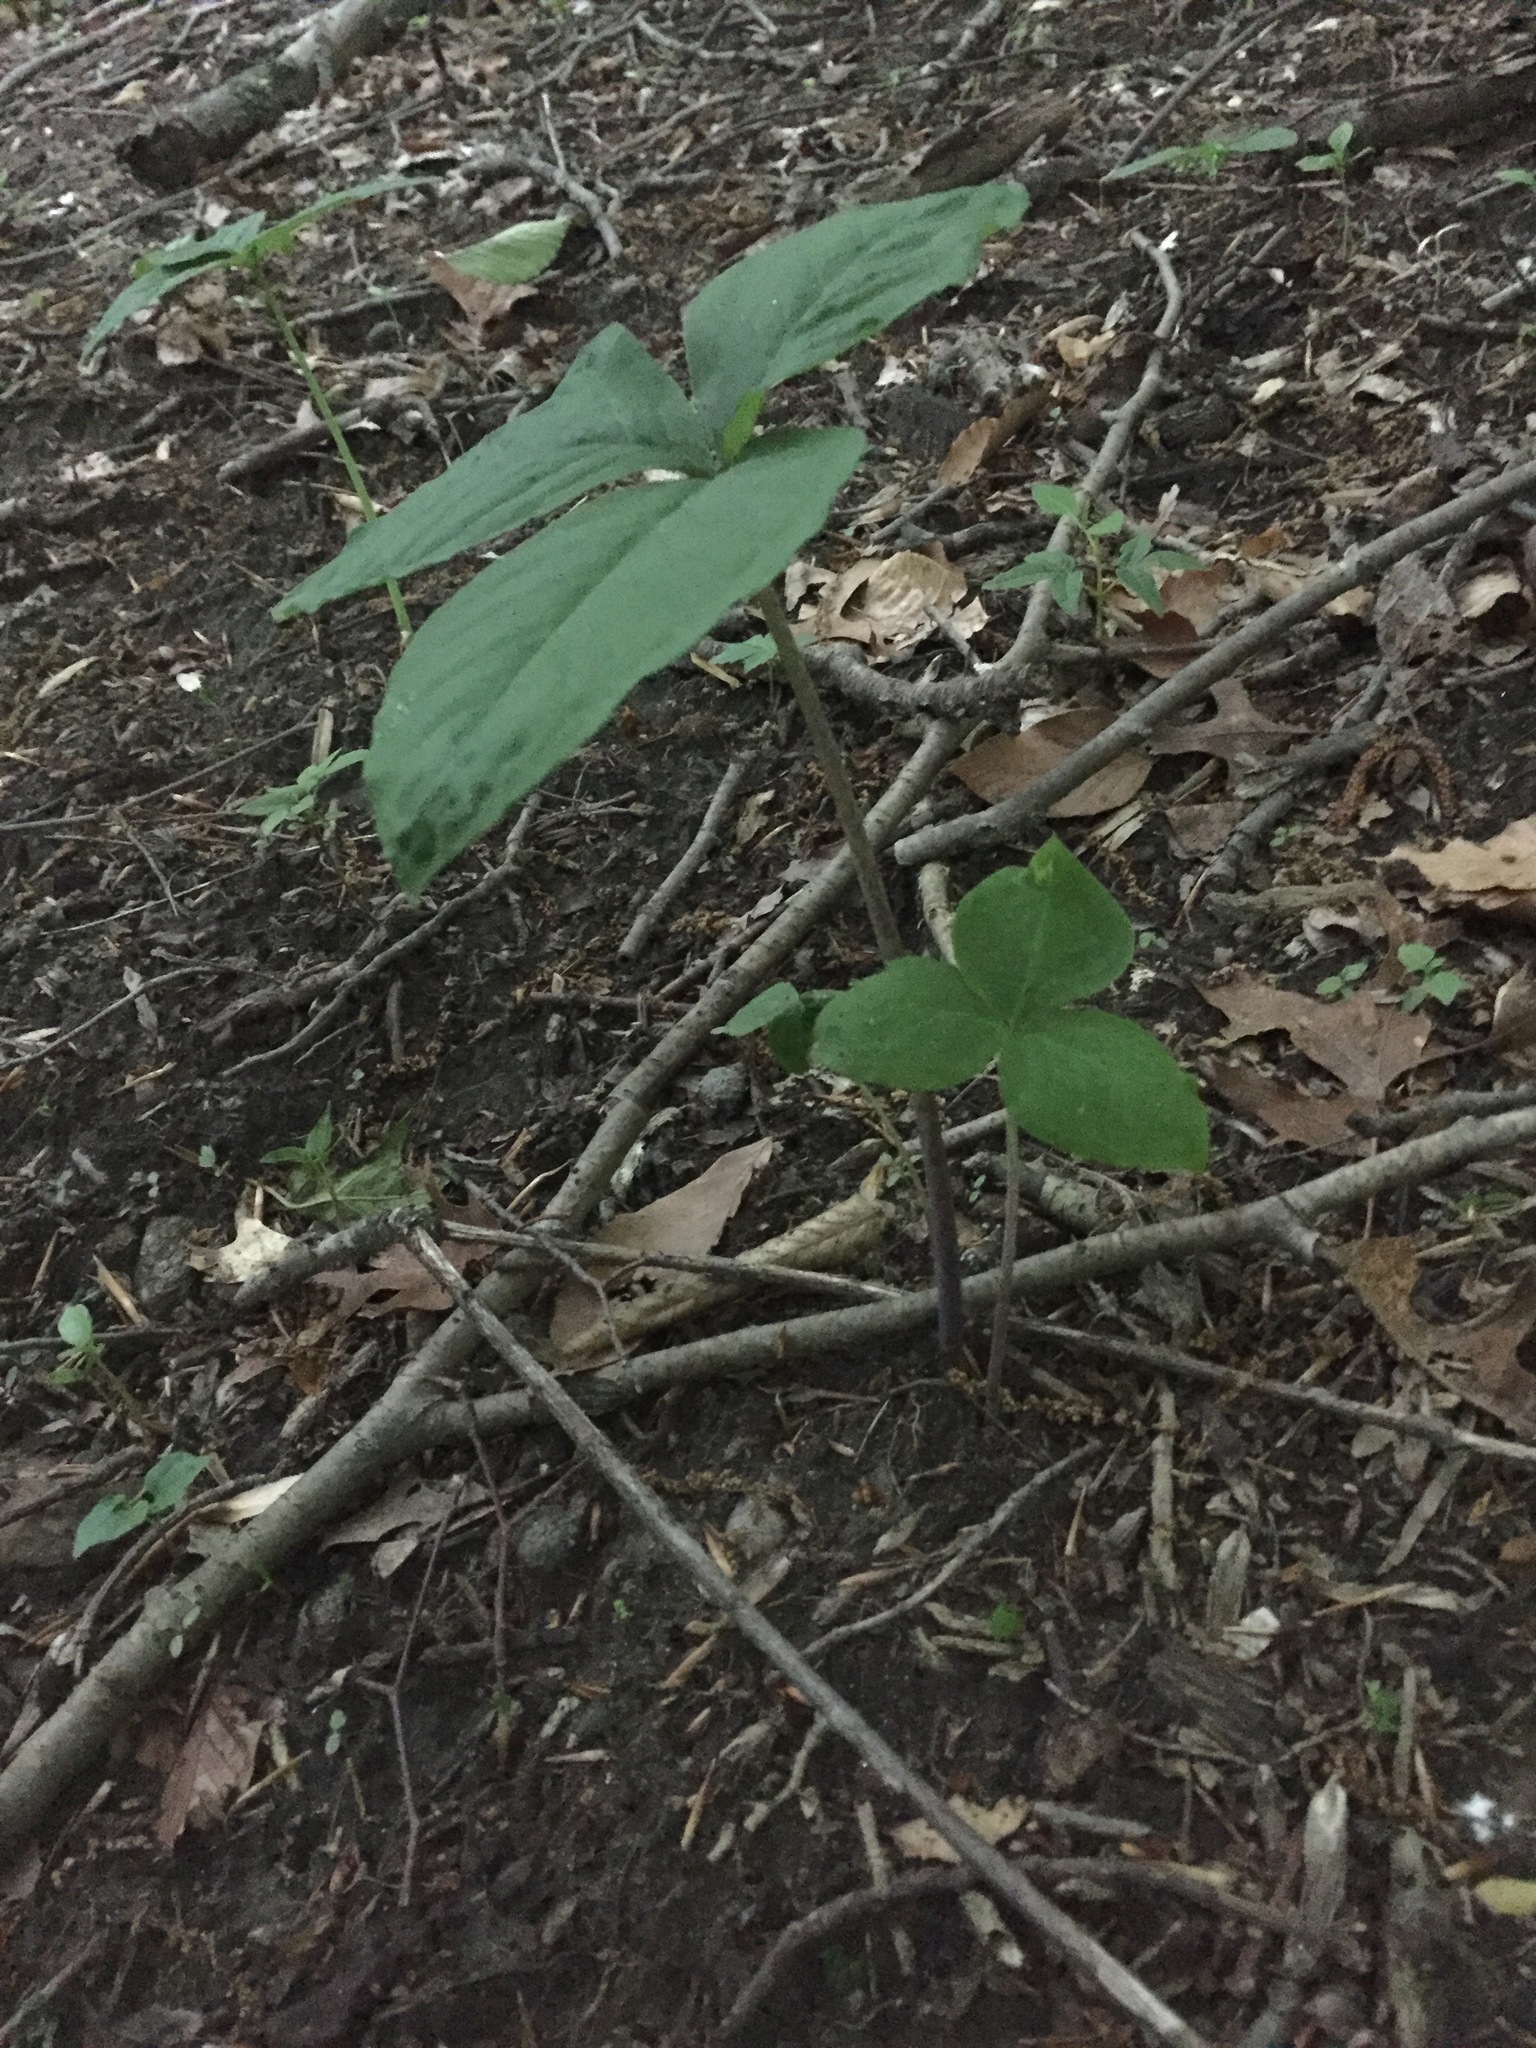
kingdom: Plantae
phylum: Tracheophyta
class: Liliopsida
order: Alismatales
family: Araceae
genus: Arisaema
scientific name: Arisaema triphyllum
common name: Jack-in-the-pulpit
